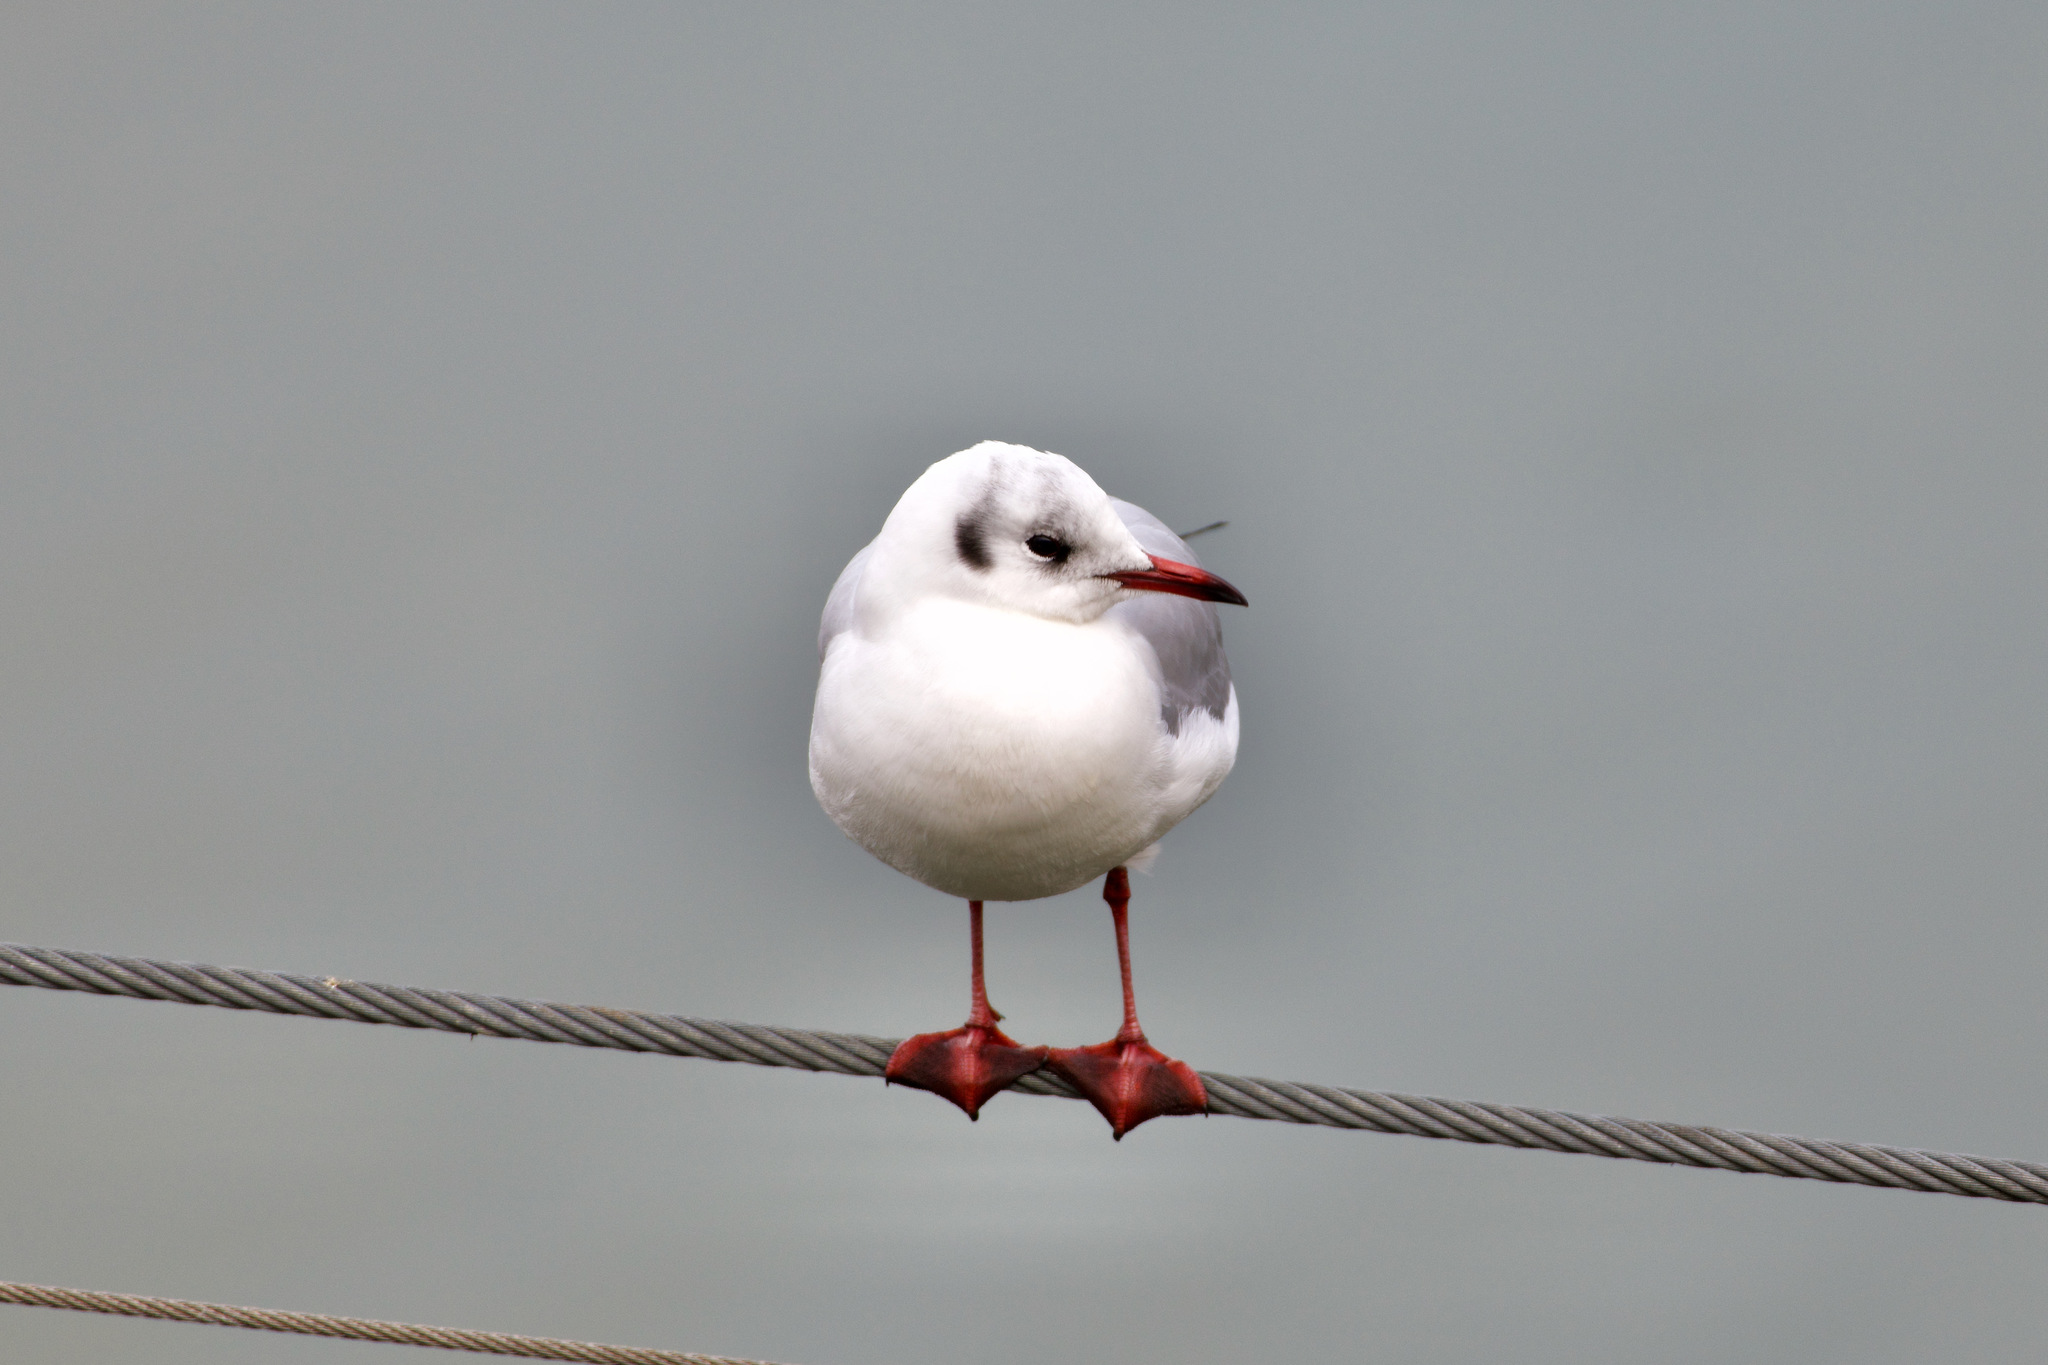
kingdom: Animalia
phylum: Chordata
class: Aves
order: Charadriiformes
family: Laridae
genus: Chroicocephalus
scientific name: Chroicocephalus ridibundus
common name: Black-headed gull
